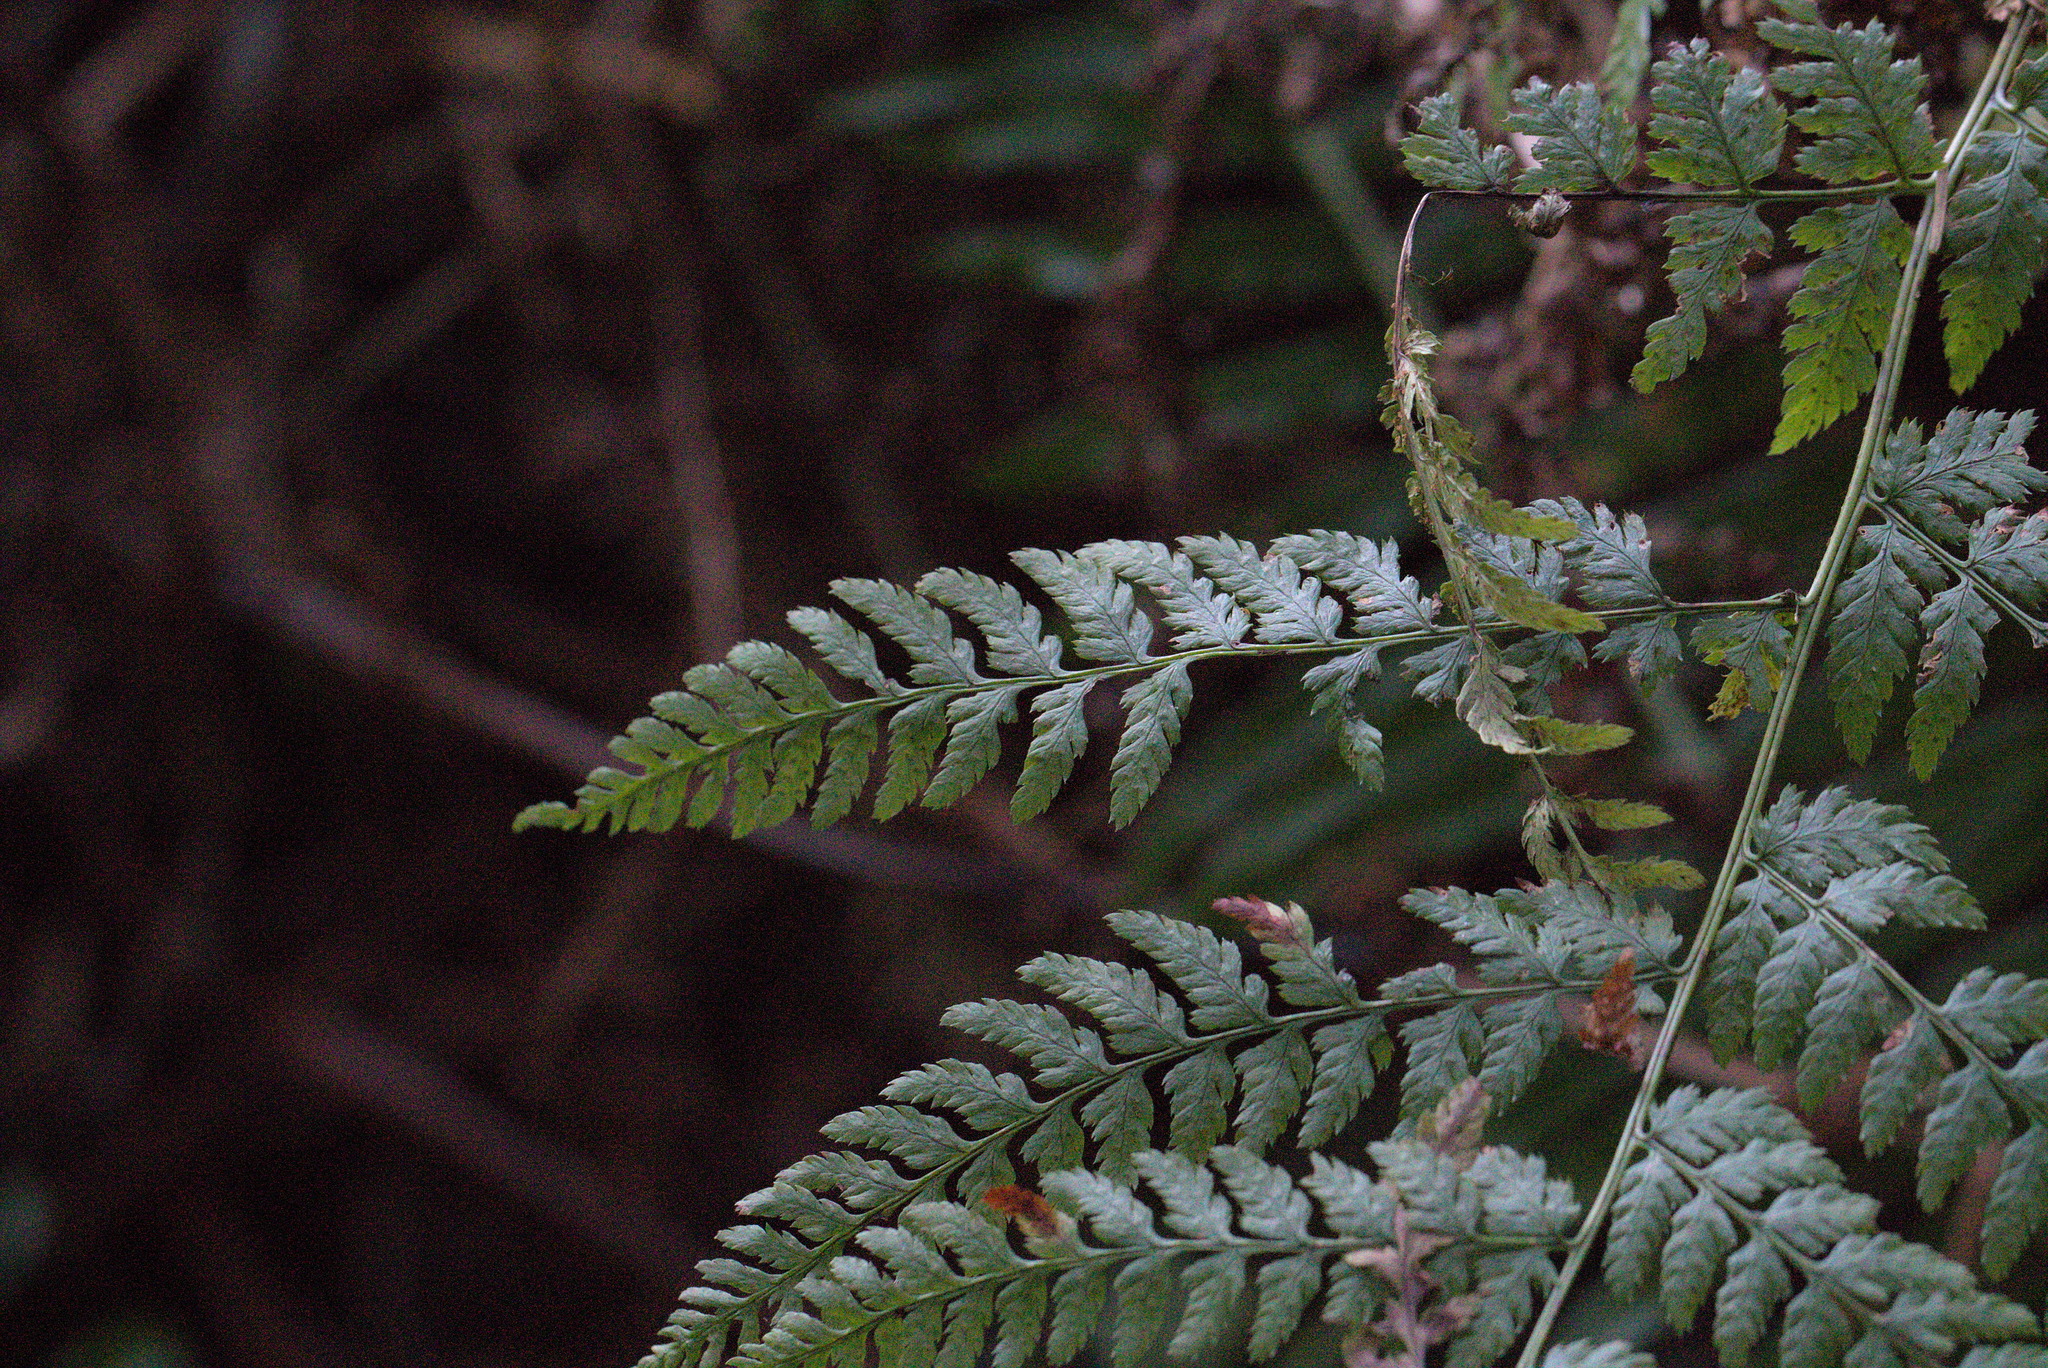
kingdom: Plantae
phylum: Tracheophyta
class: Polypodiopsida
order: Polypodiales
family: Dryopteridaceae
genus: Dryopteris
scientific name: Dryopteris expansa
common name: Northern buckler fern
